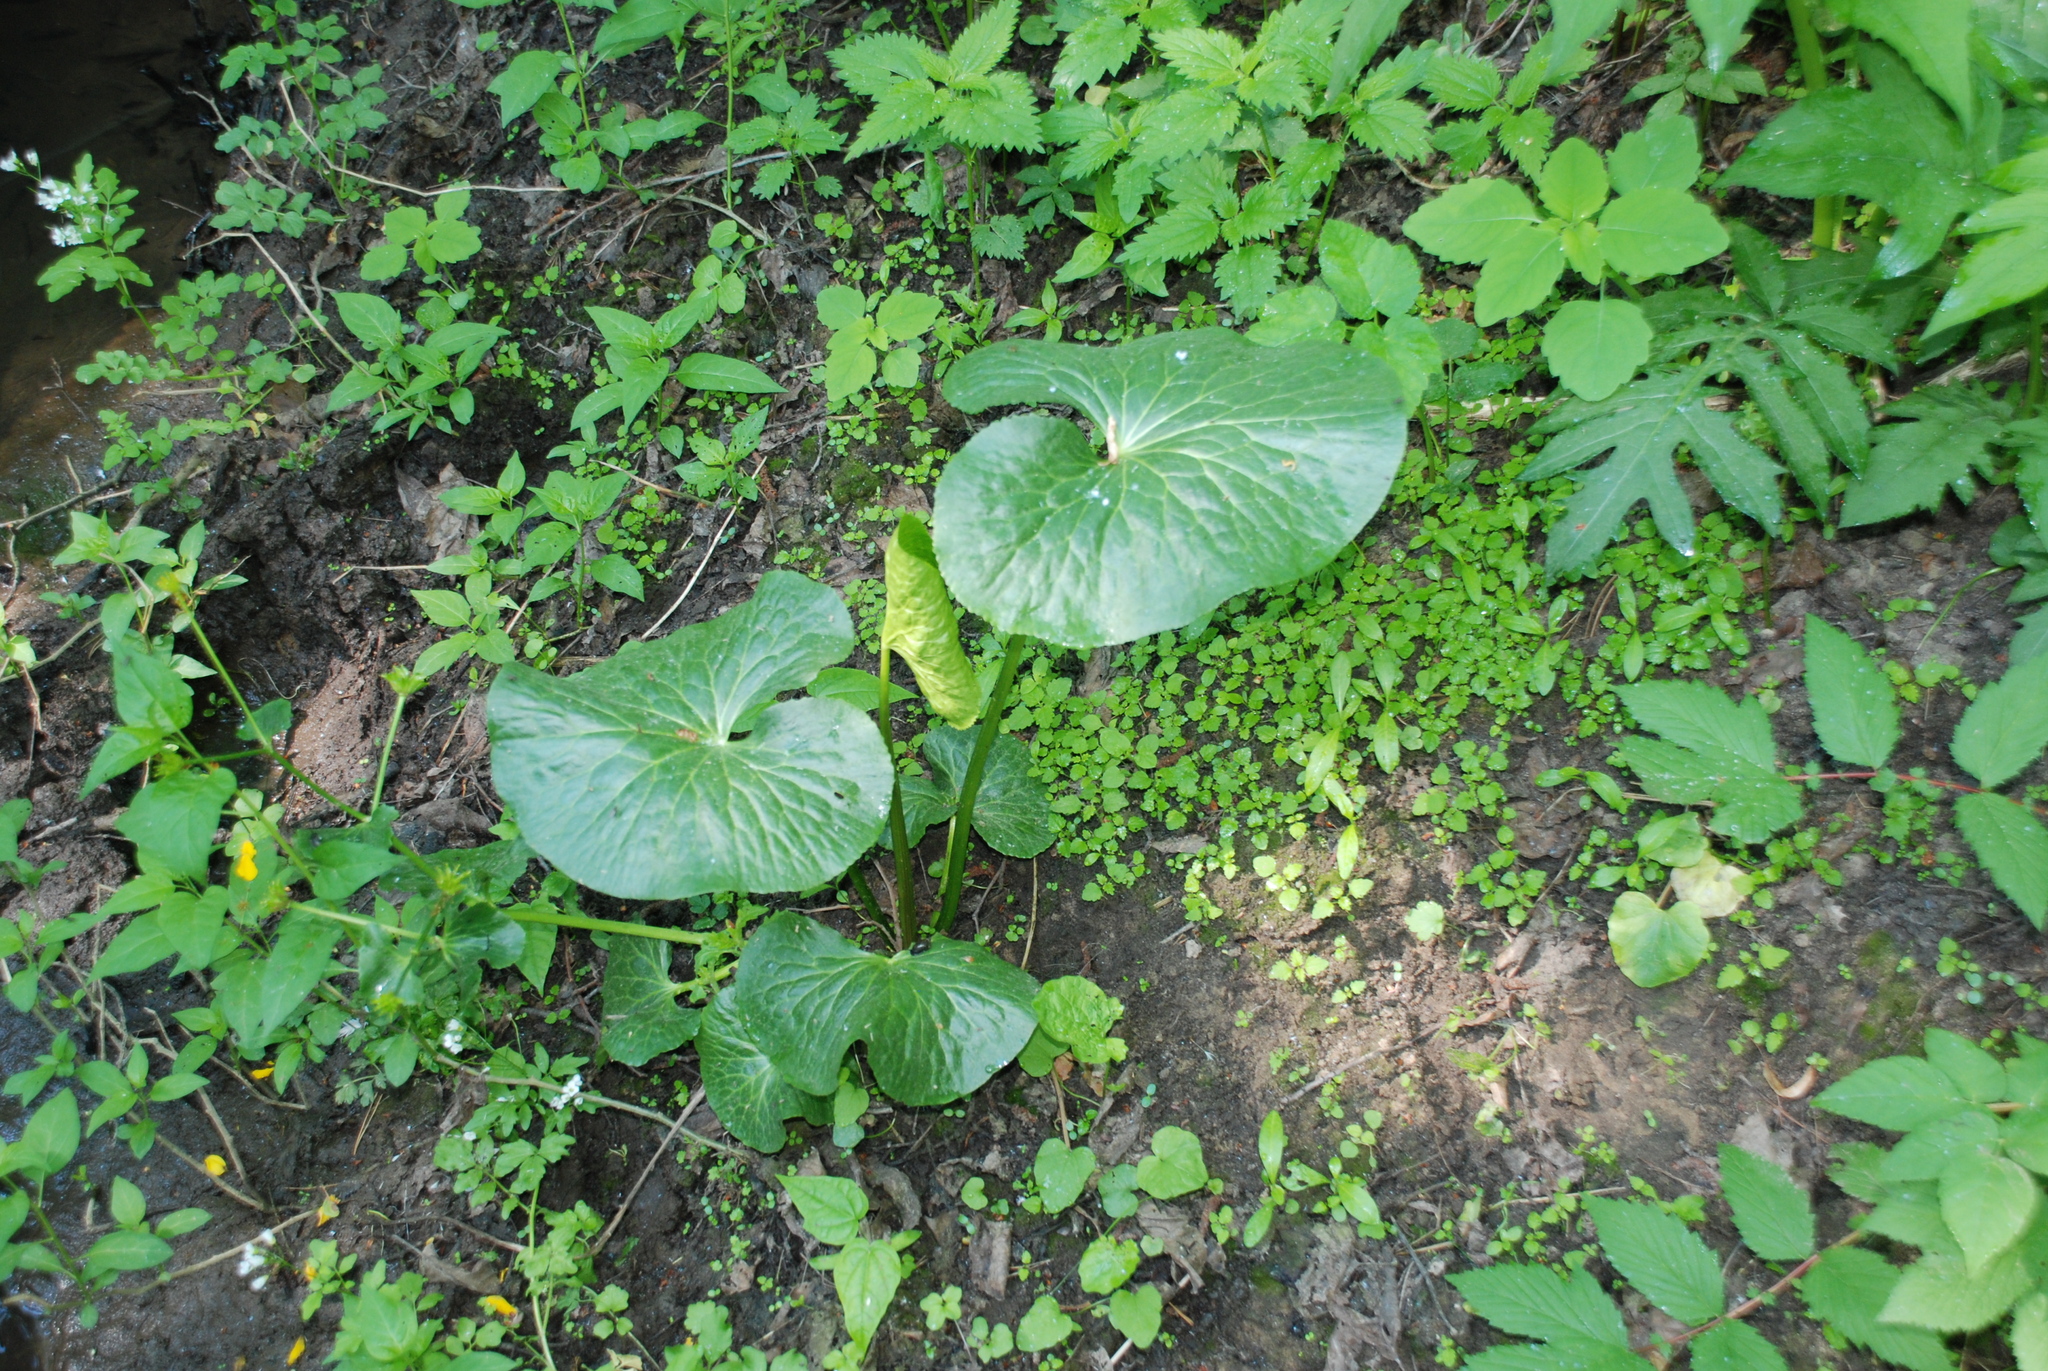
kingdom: Plantae
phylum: Tracheophyta
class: Magnoliopsida
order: Ranunculales
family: Ranunculaceae
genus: Caltha
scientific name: Caltha palustris
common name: Marsh marigold
